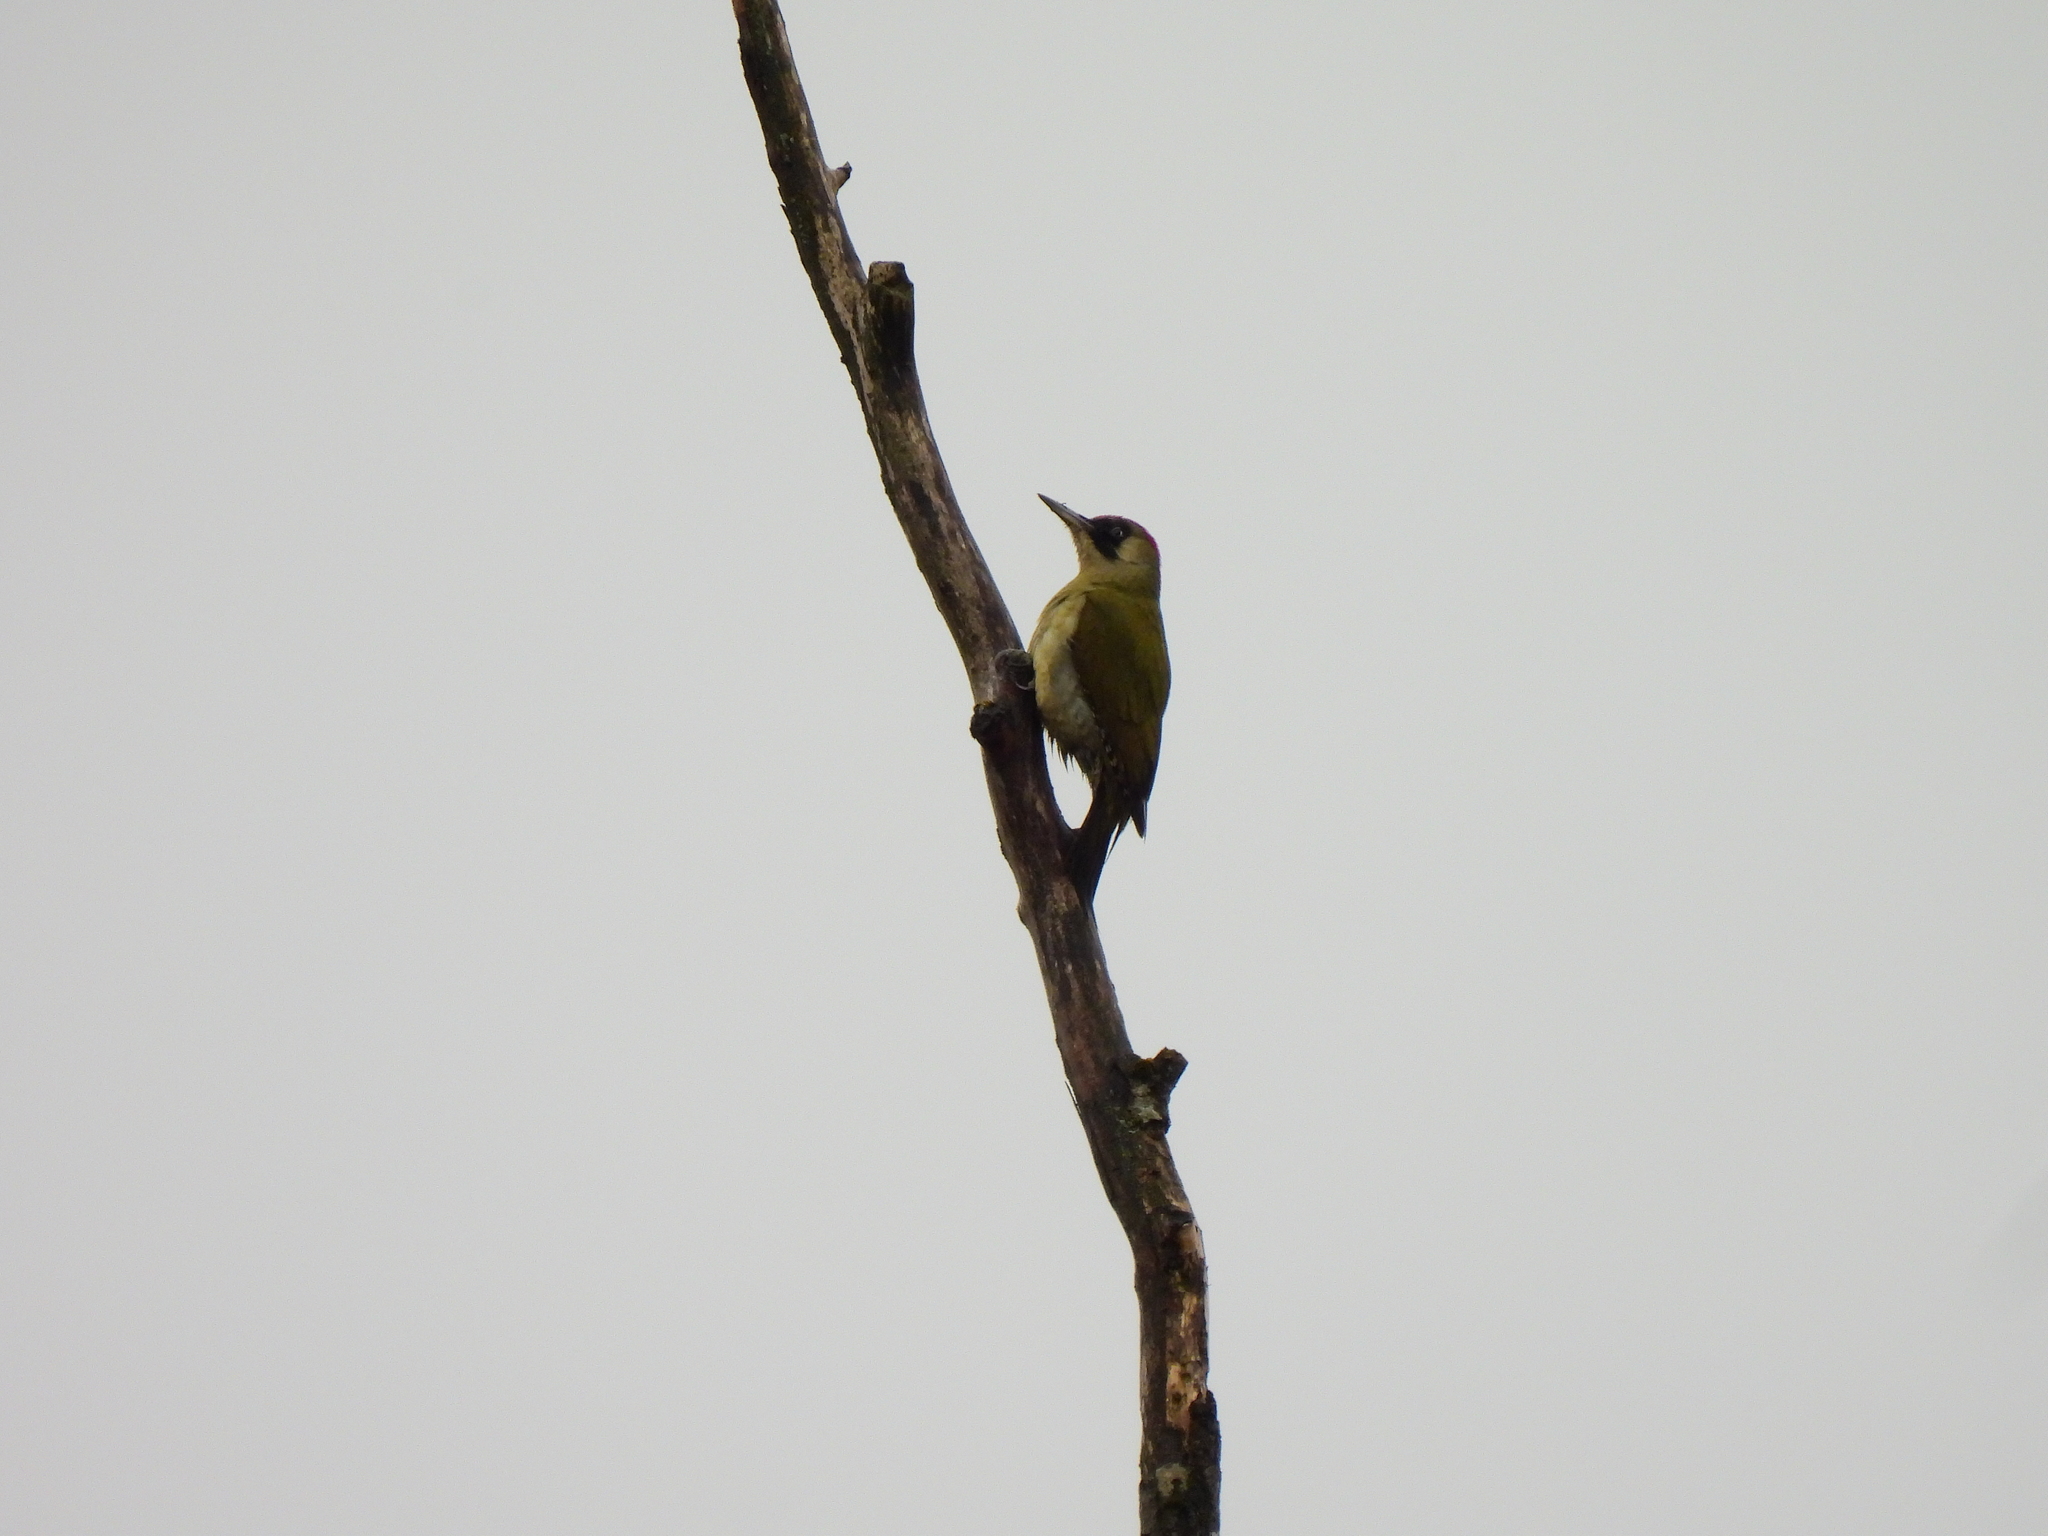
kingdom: Animalia
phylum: Chordata
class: Aves
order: Piciformes
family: Picidae
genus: Picus
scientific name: Picus viridis
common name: European green woodpecker
